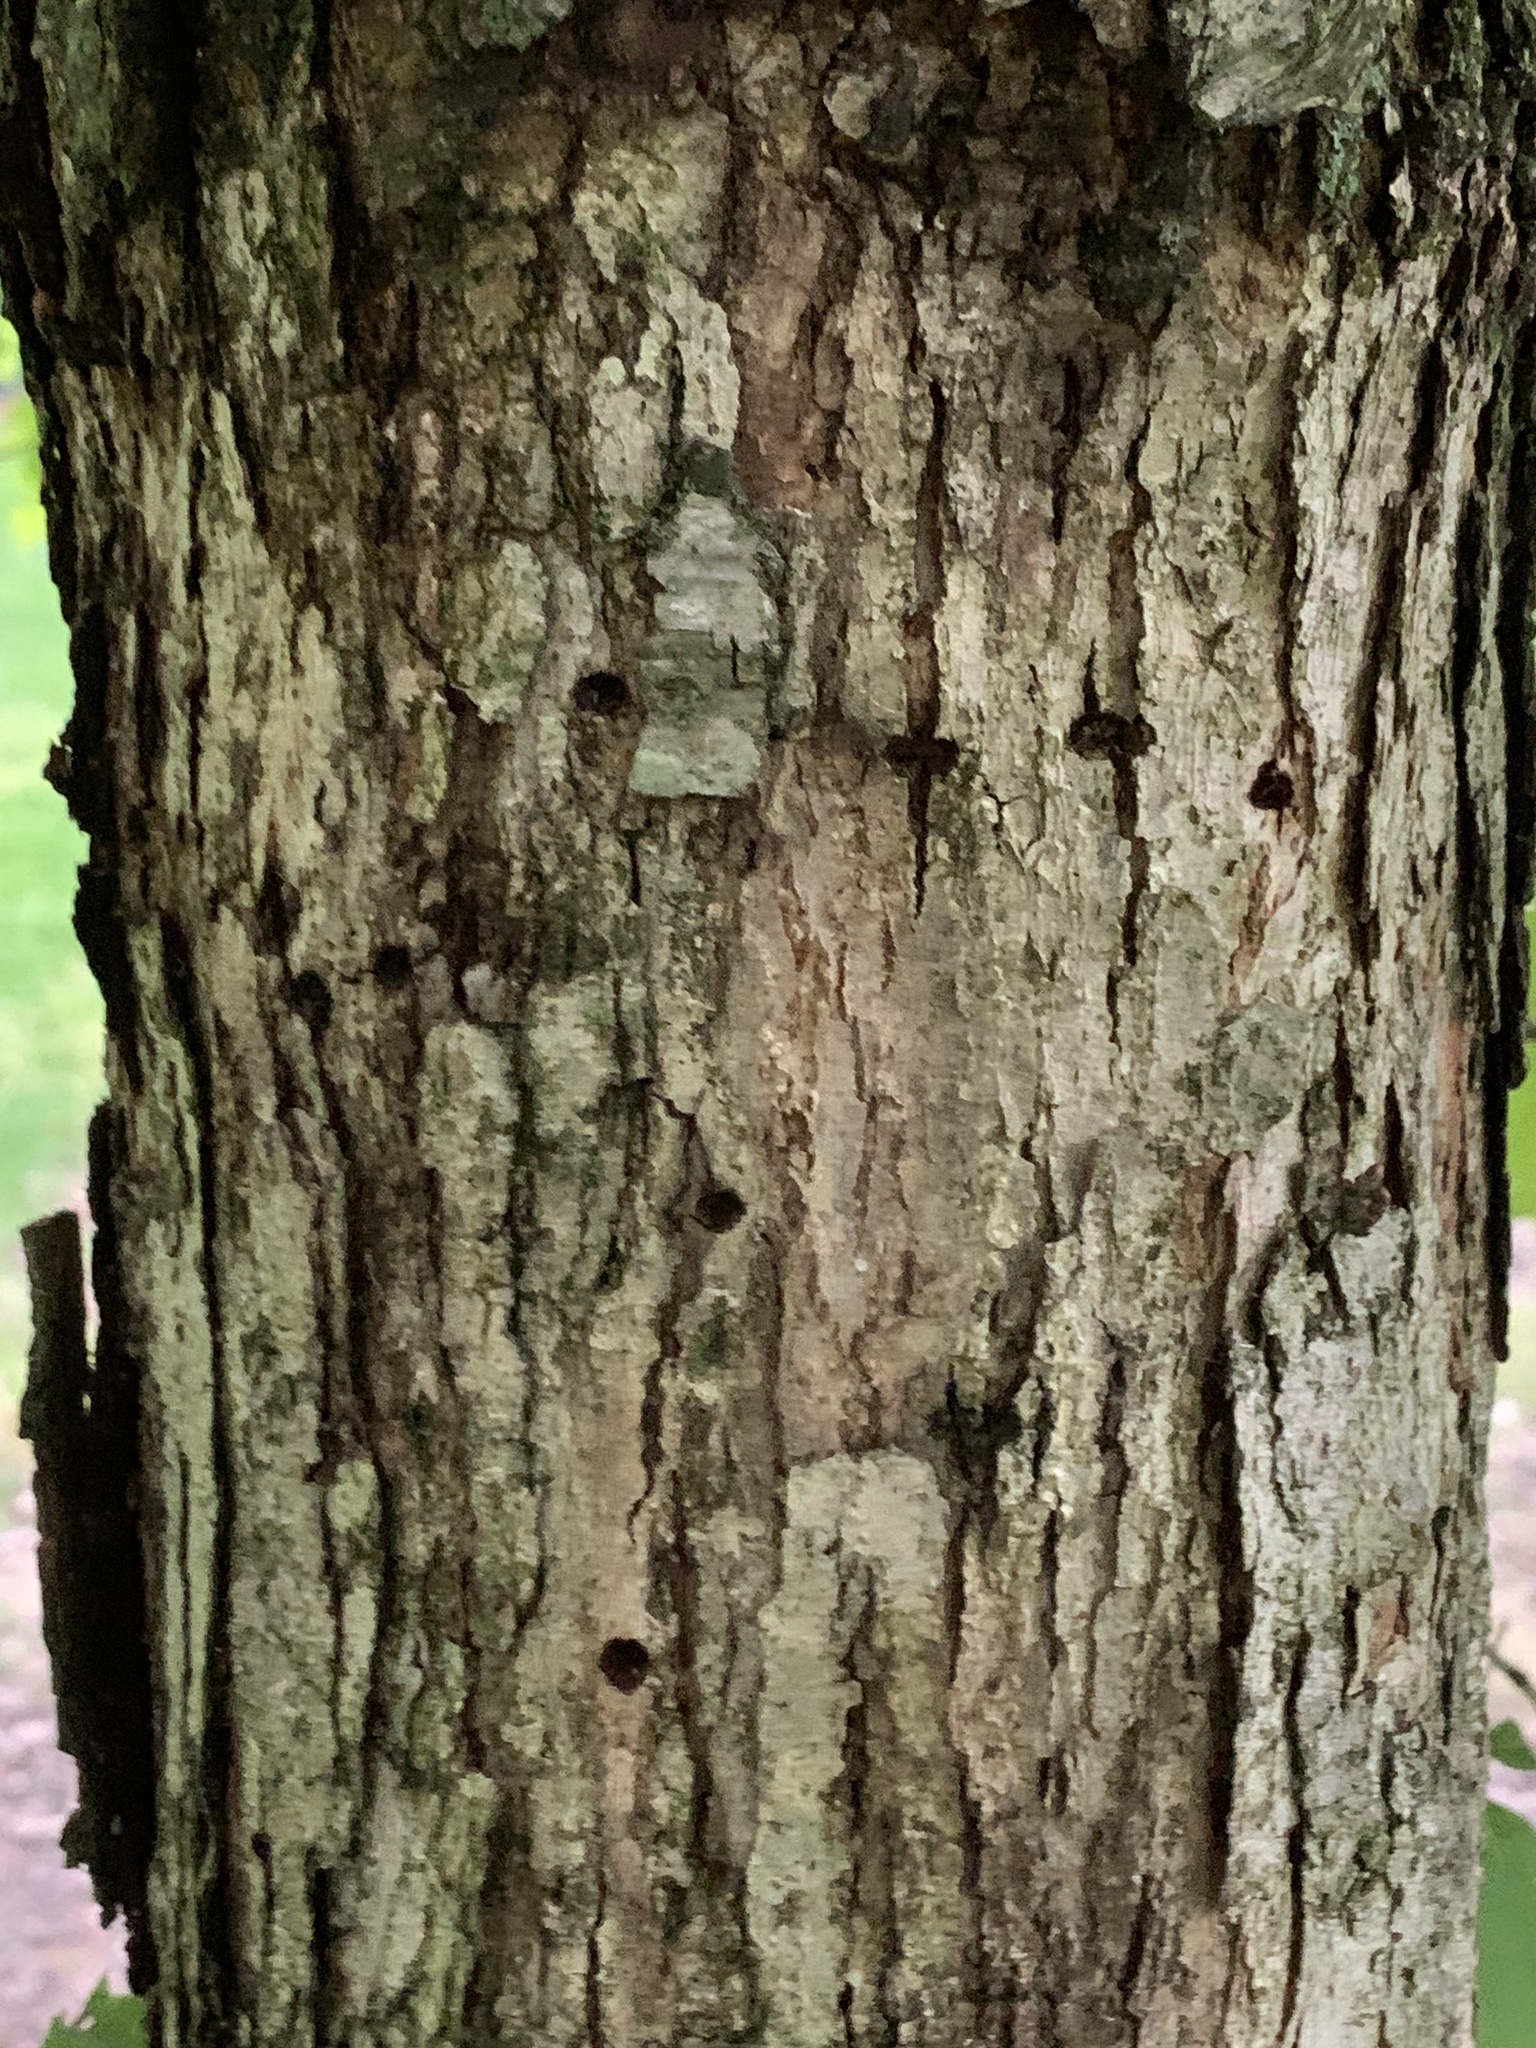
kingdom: Animalia
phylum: Chordata
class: Aves
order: Piciformes
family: Picidae
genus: Sphyrapicus
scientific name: Sphyrapicus varius
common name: Yellow-bellied sapsucker
